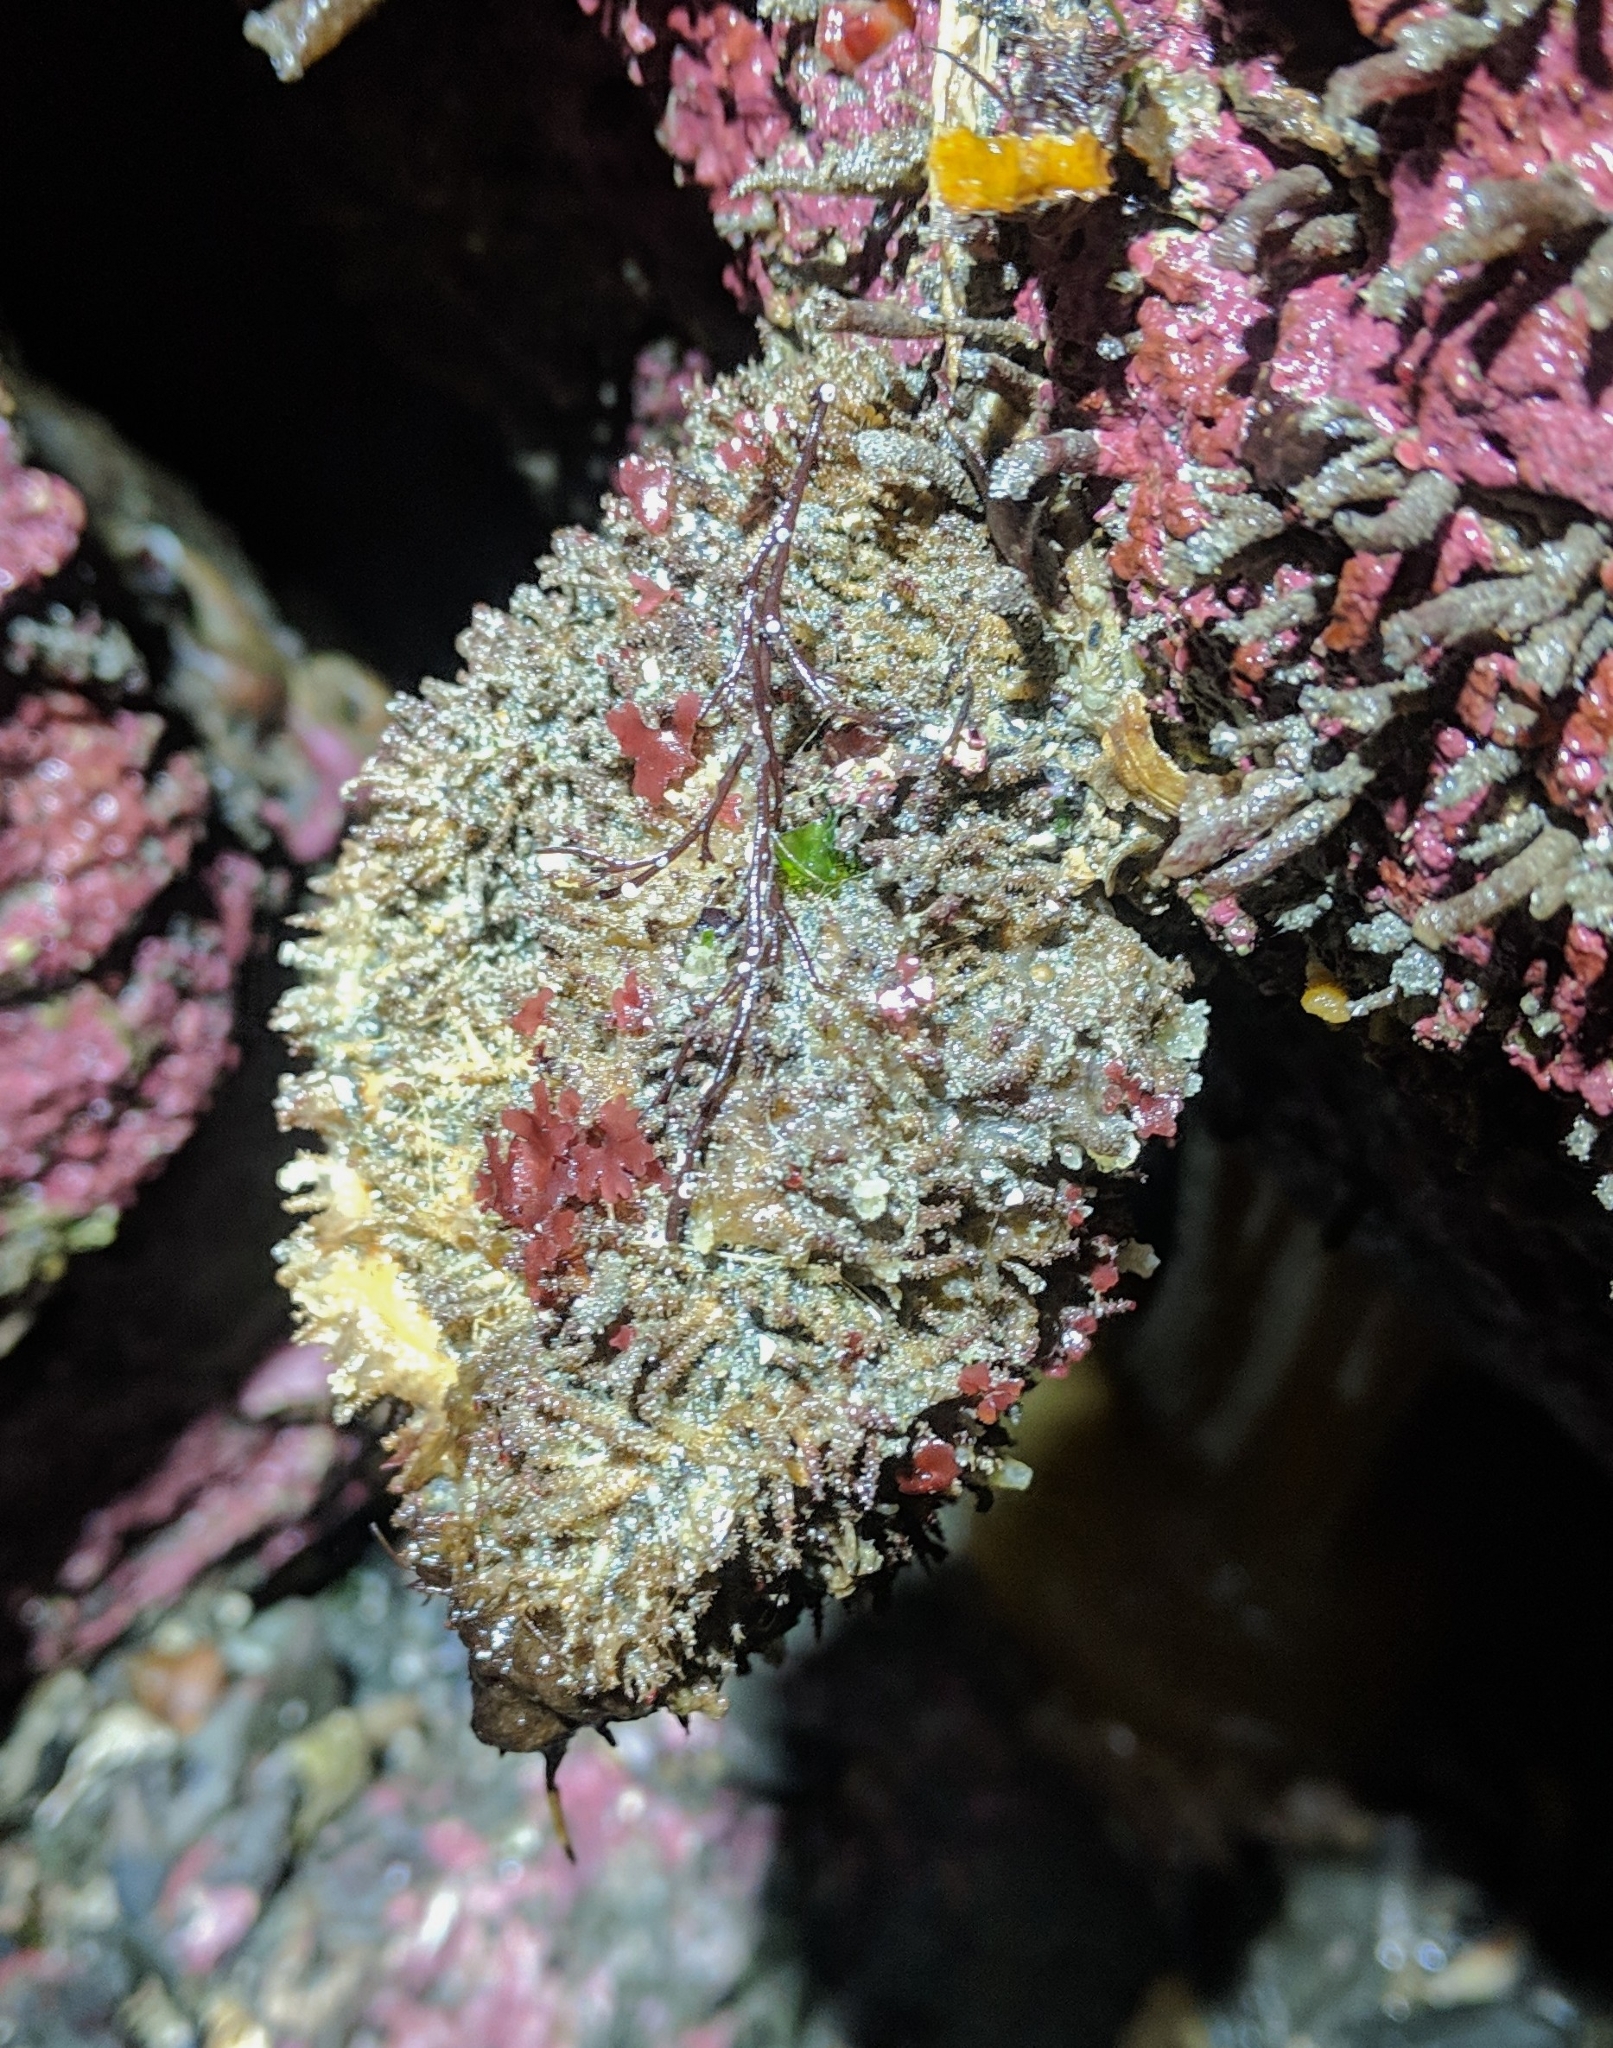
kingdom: Animalia
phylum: Chordata
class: Ascidiacea
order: Stolidobranchia
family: Pyuridae
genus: Halocynthia
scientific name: Halocynthia igaboja
